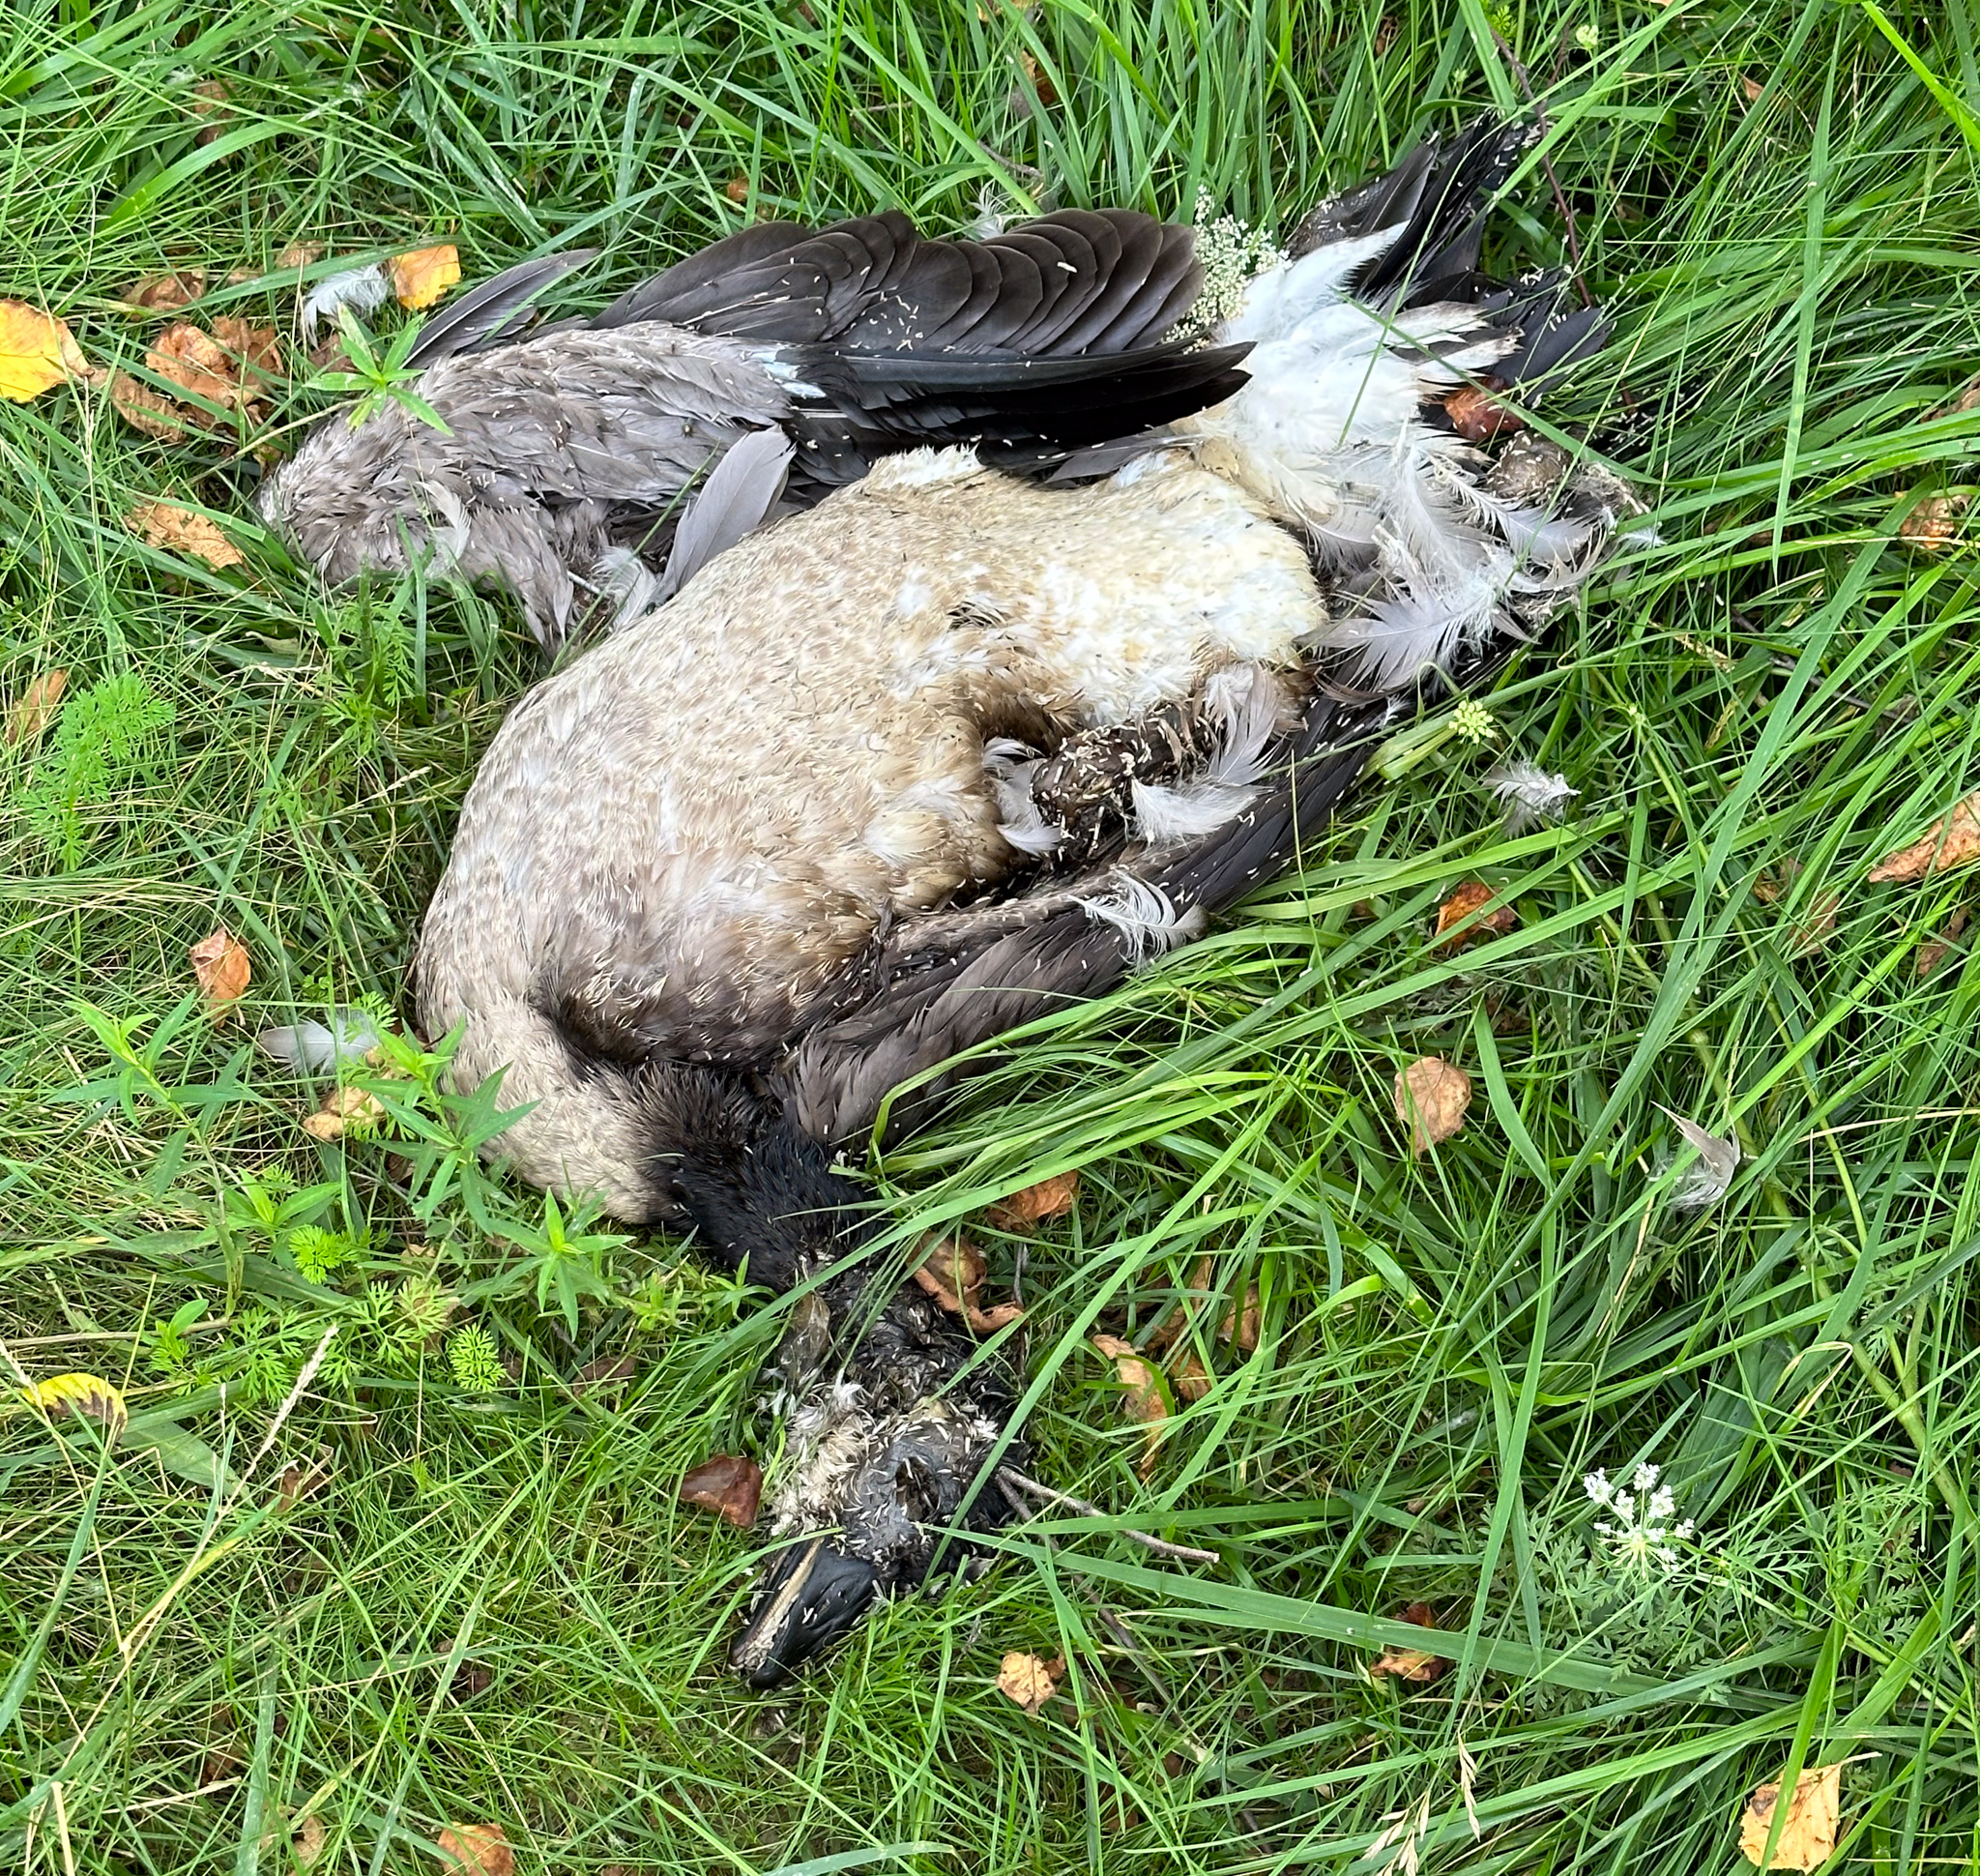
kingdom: Animalia
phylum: Chordata
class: Aves
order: Anseriformes
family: Anatidae
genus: Branta
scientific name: Branta canadensis
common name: Canada goose
